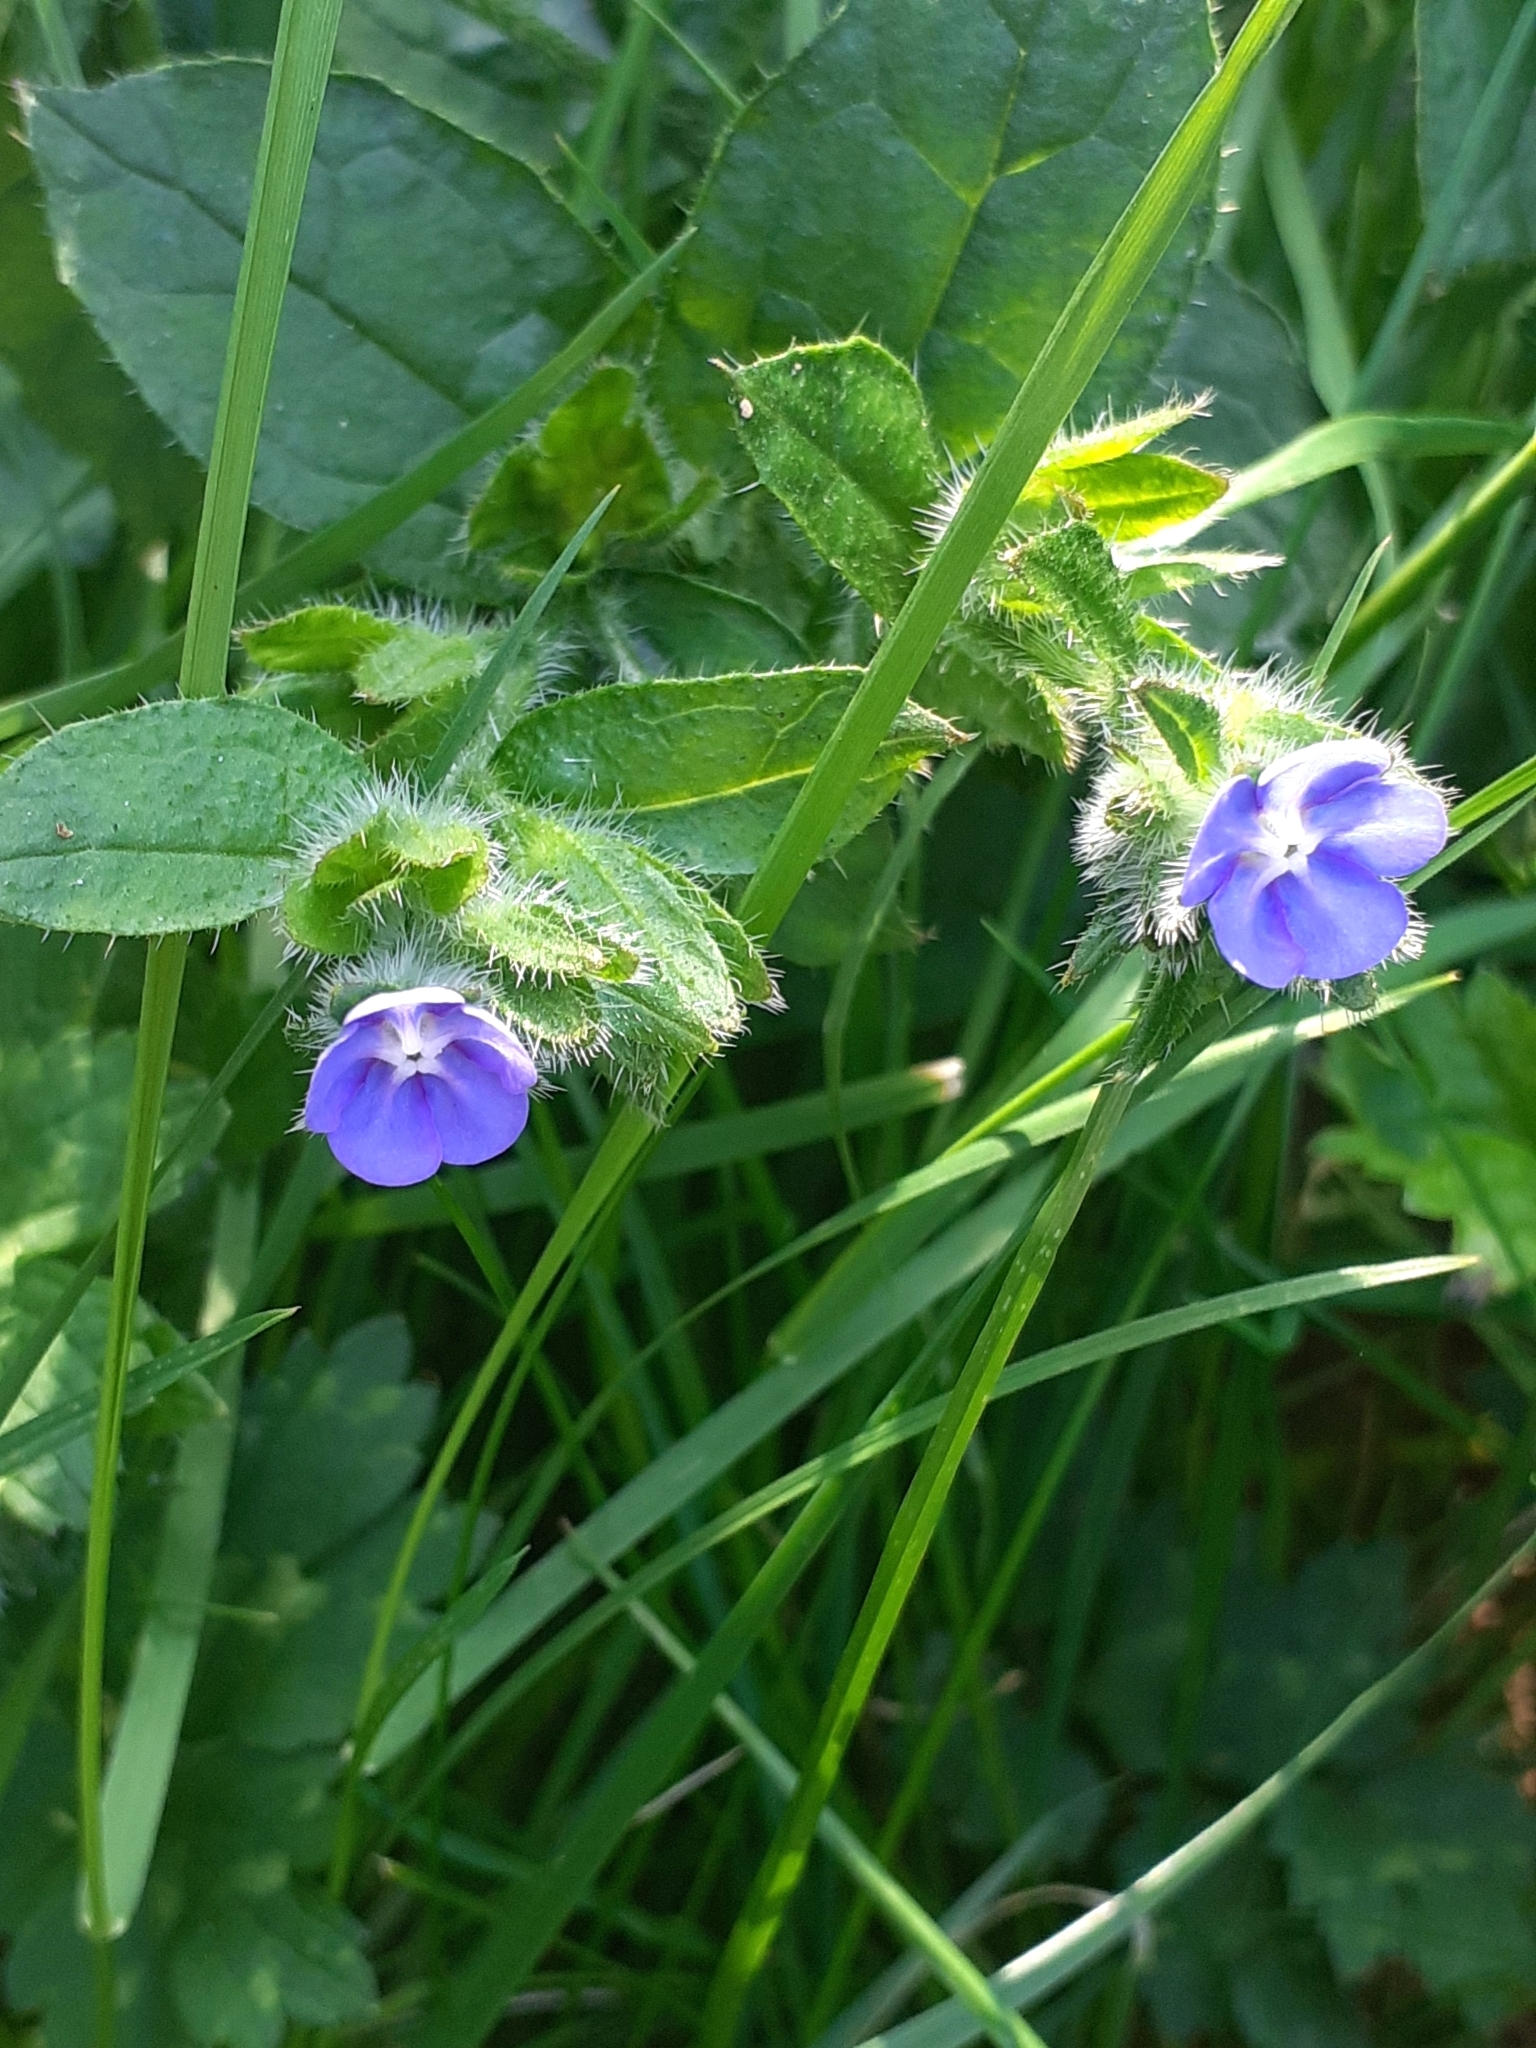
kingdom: Plantae
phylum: Tracheophyta
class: Magnoliopsida
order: Boraginales
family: Boraginaceae
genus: Pentaglottis
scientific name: Pentaglottis sempervirens
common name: Green alkanet
